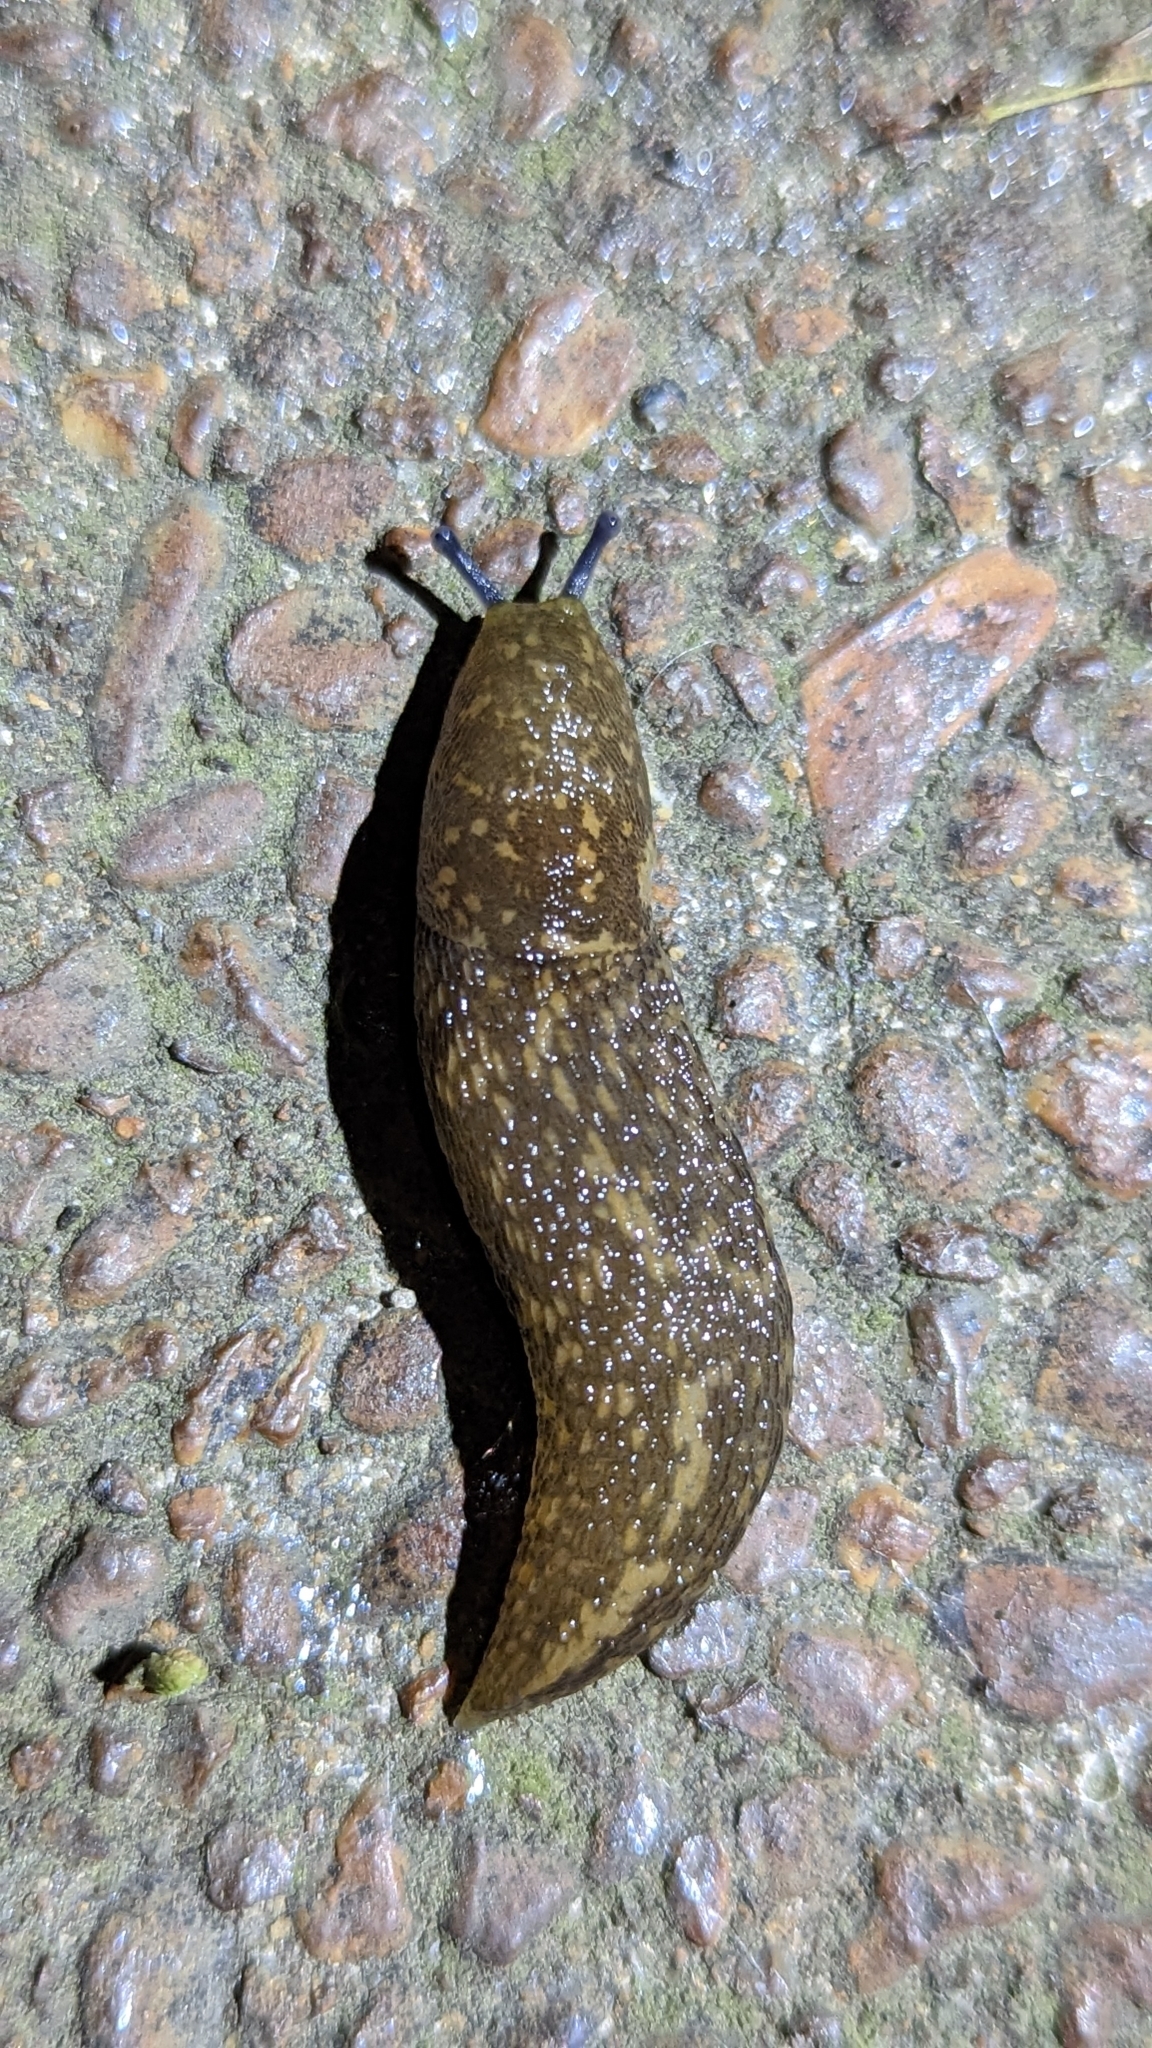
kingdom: Animalia
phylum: Mollusca
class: Gastropoda
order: Stylommatophora
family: Limacidae
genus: Limacus
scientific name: Limacus flavus
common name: Yellow gardenslug
